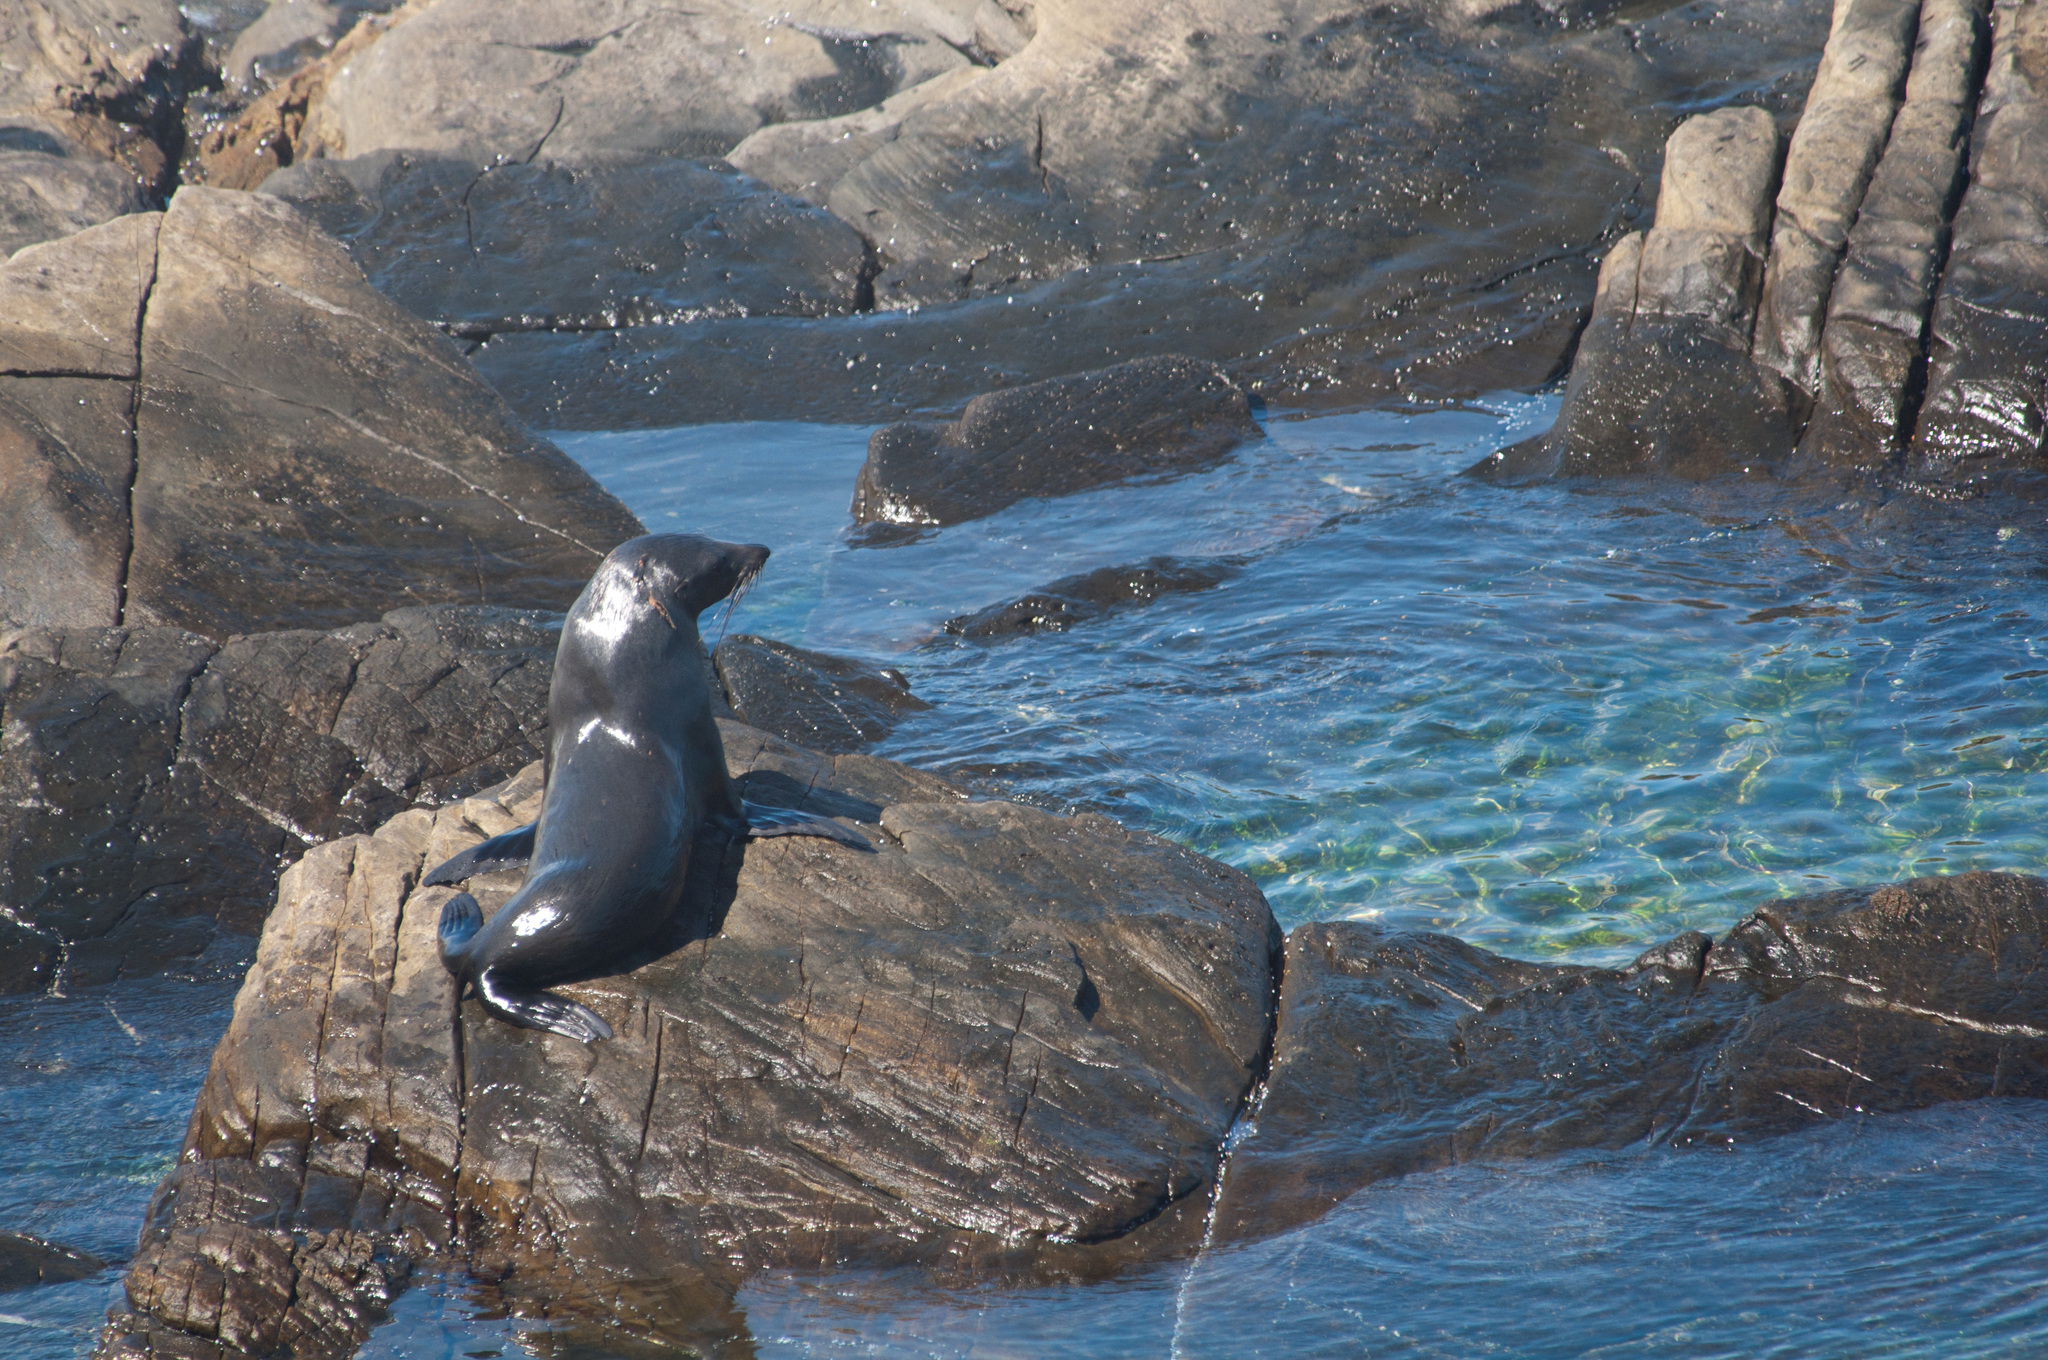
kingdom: Animalia
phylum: Chordata
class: Mammalia
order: Carnivora
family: Otariidae
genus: Arctocephalus
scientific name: Arctocephalus forsteri
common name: New zealand fur seal
